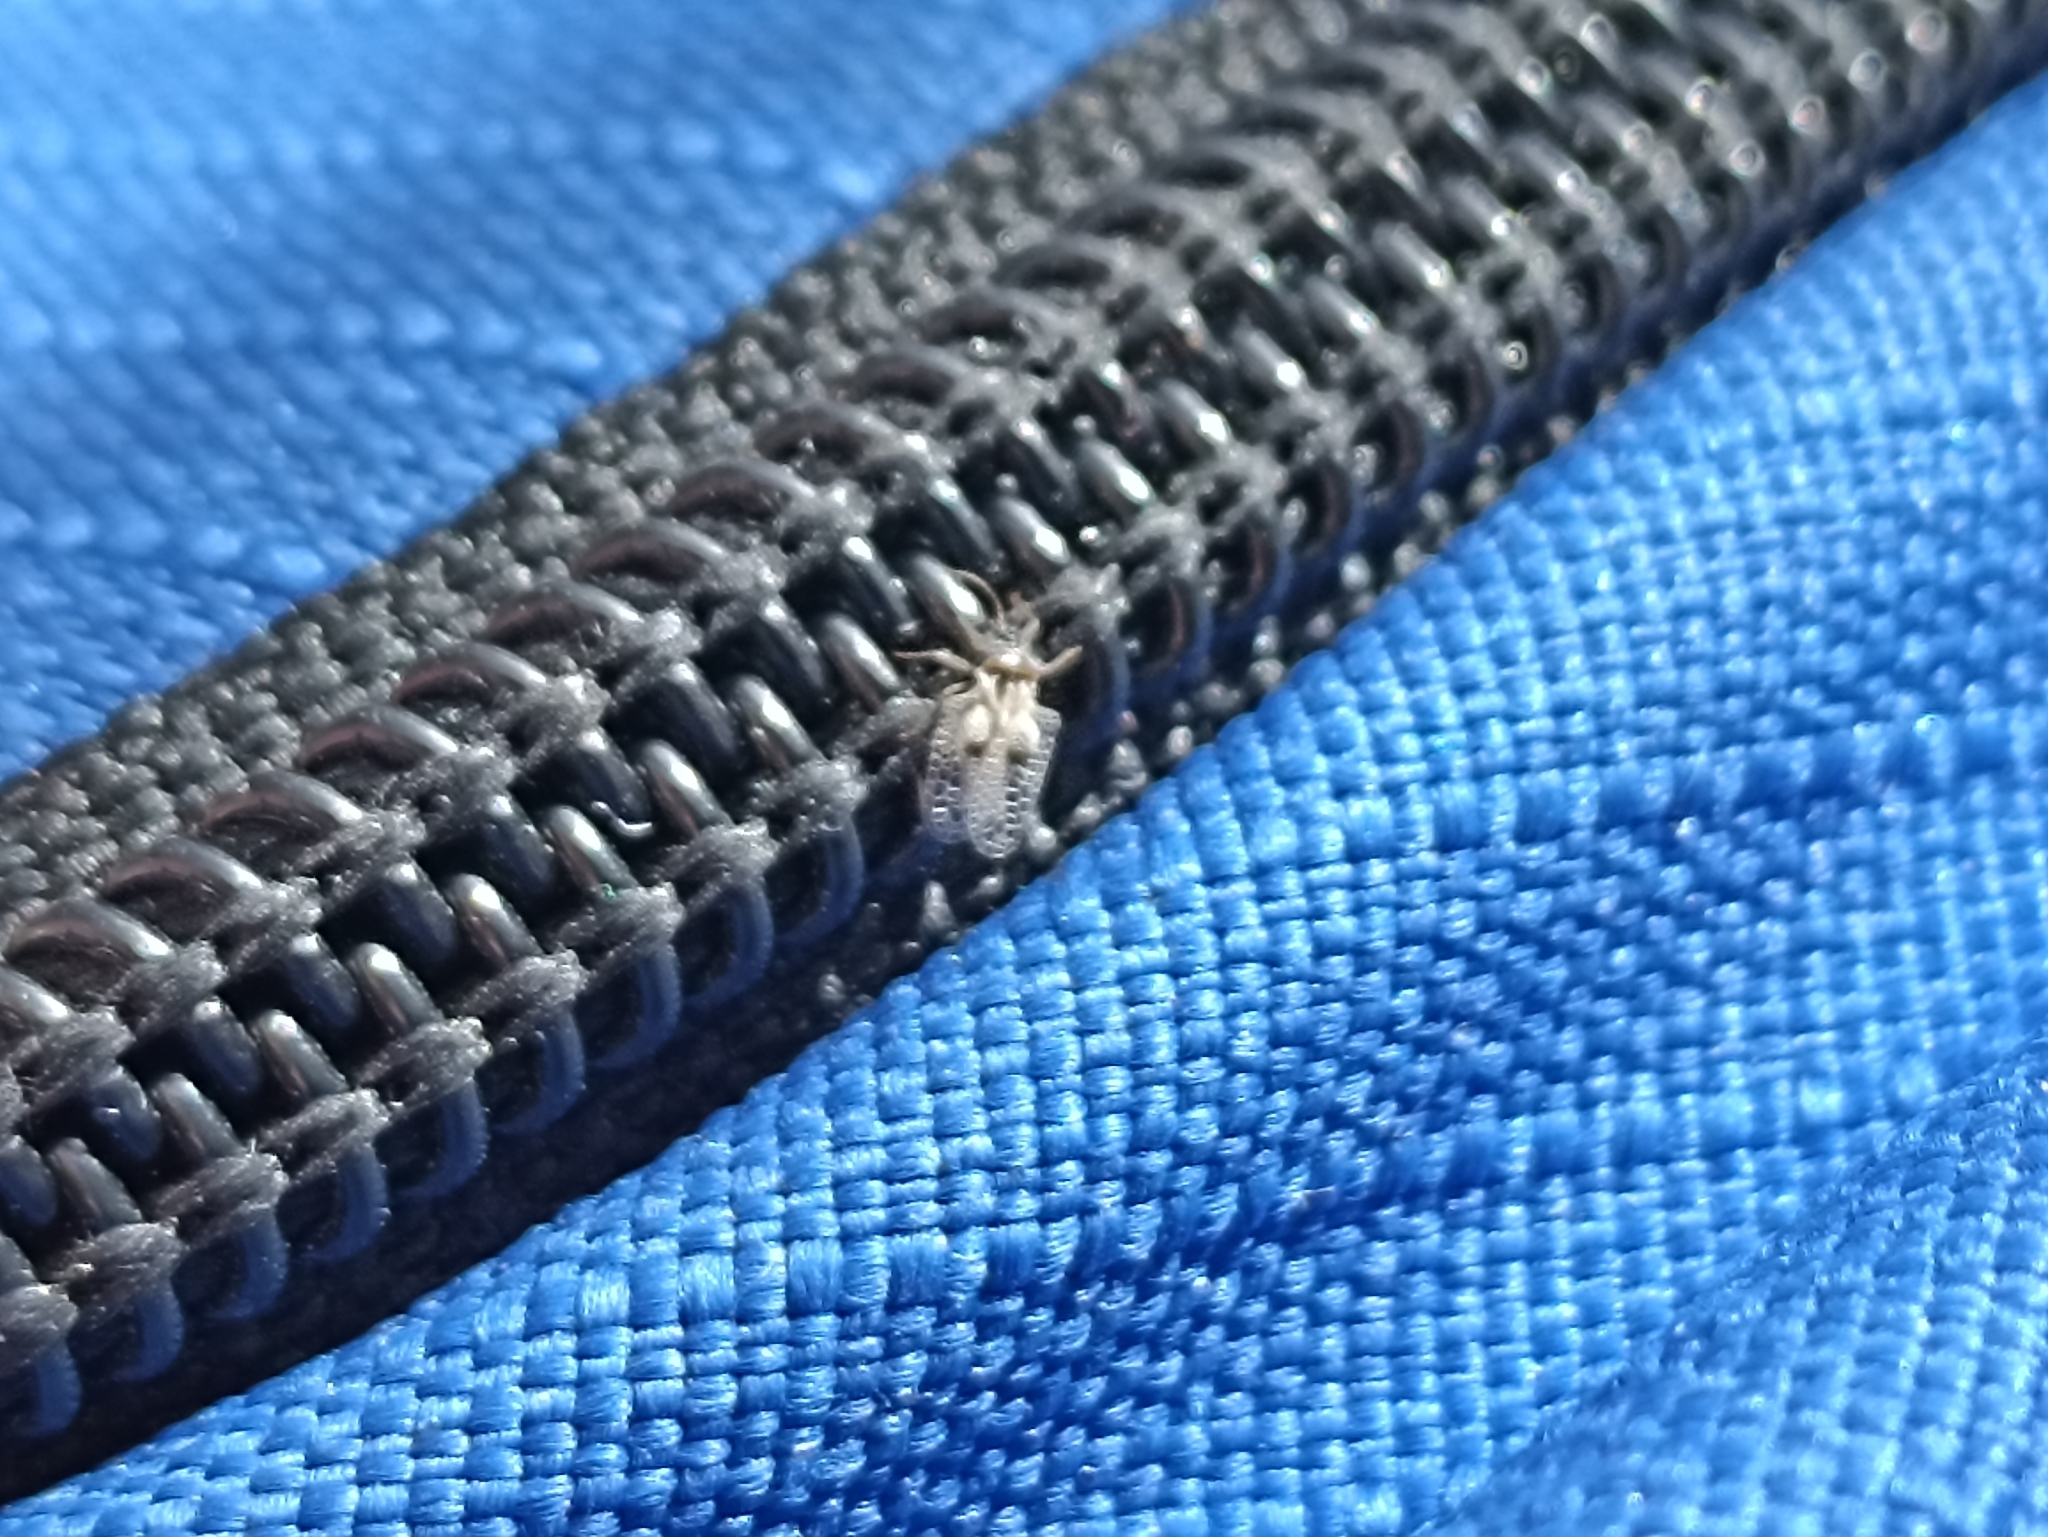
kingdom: Animalia
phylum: Arthropoda
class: Insecta
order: Hemiptera
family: Tingidae
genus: Corythucha
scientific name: Corythucha ciliata
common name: Sycamore lace bug
